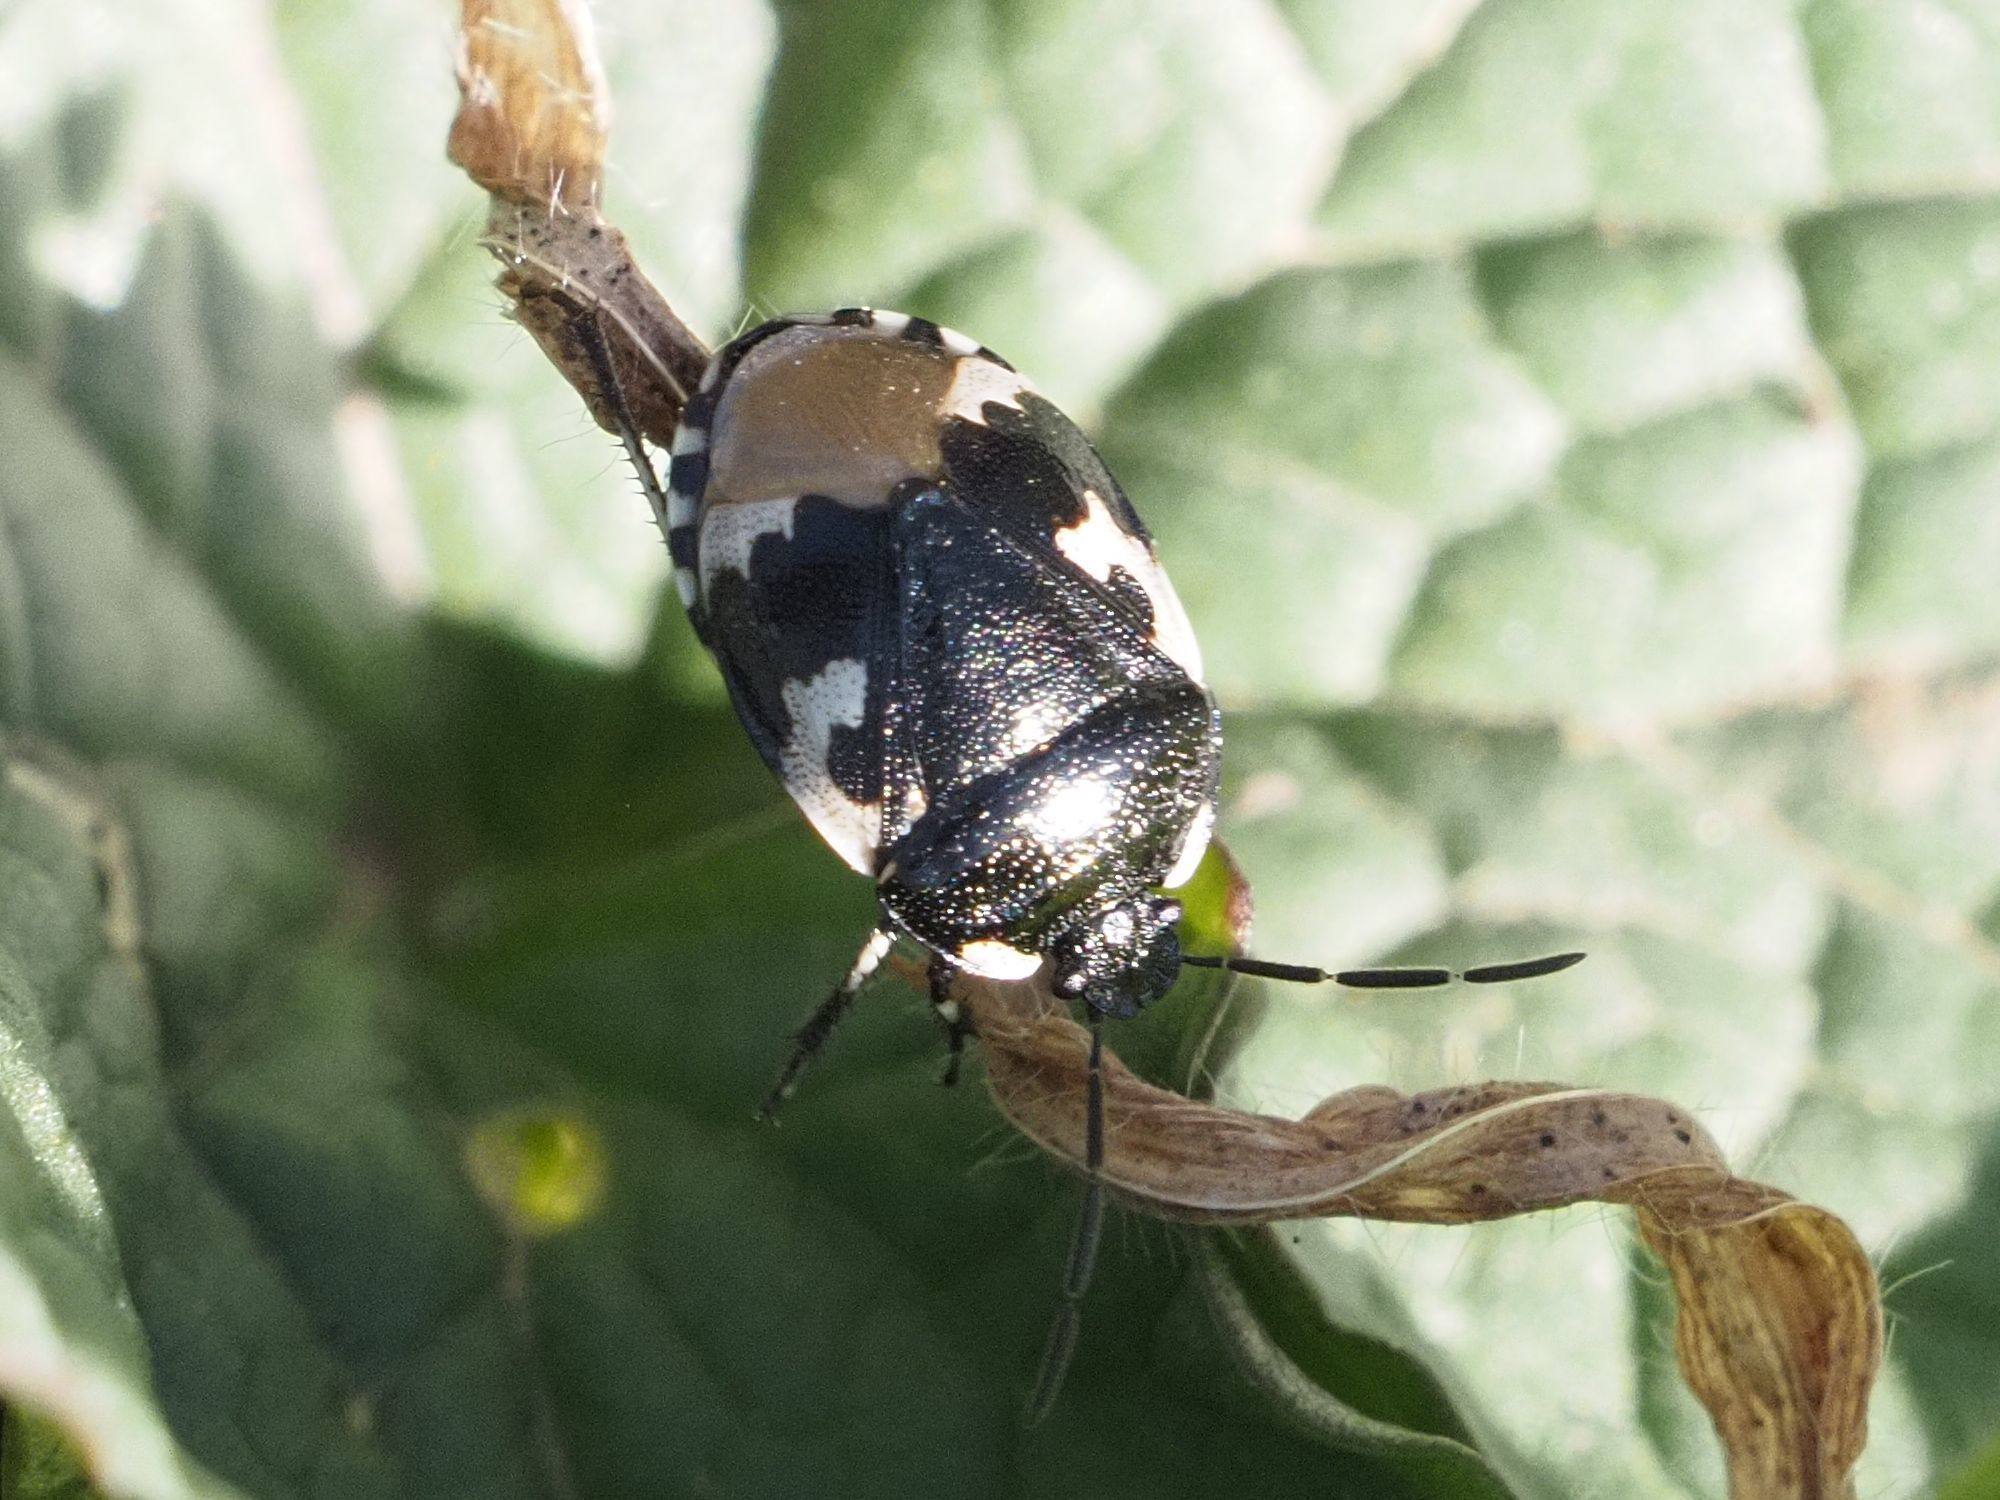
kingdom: Animalia
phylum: Arthropoda
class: Insecta
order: Hemiptera
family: Cydnidae
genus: Tritomegas
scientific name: Tritomegas bicolor
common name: Pied shieldbug
